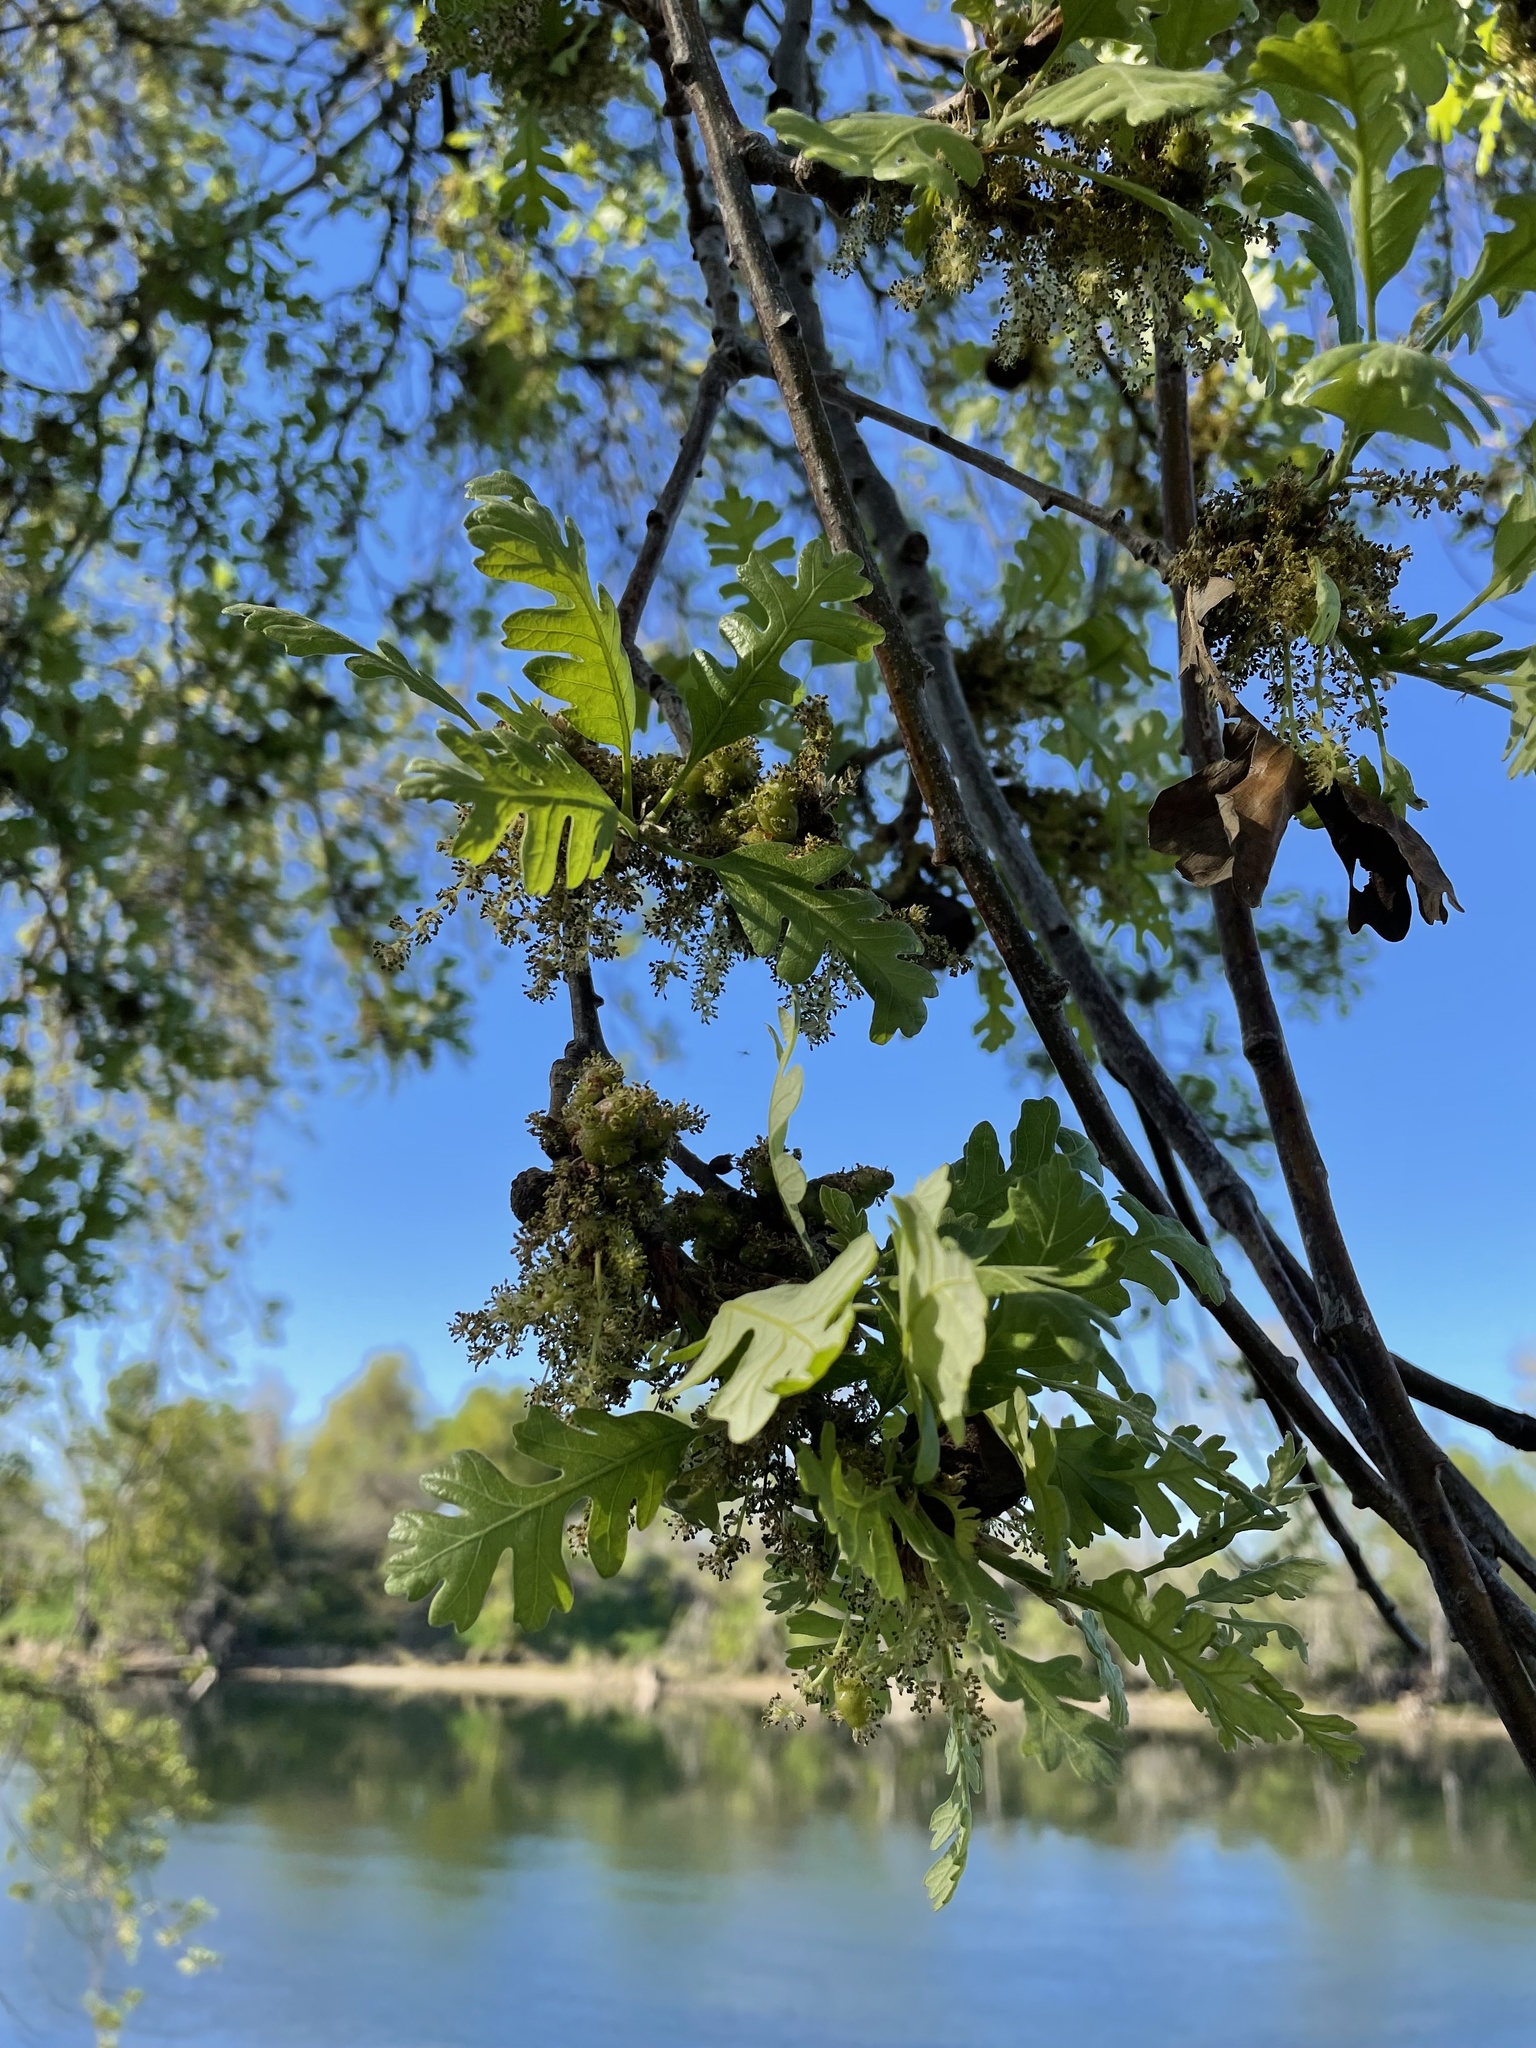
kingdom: Plantae
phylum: Tracheophyta
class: Magnoliopsida
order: Fagales
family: Fagaceae
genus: Quercus
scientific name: Quercus lobata
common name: Valley oak
